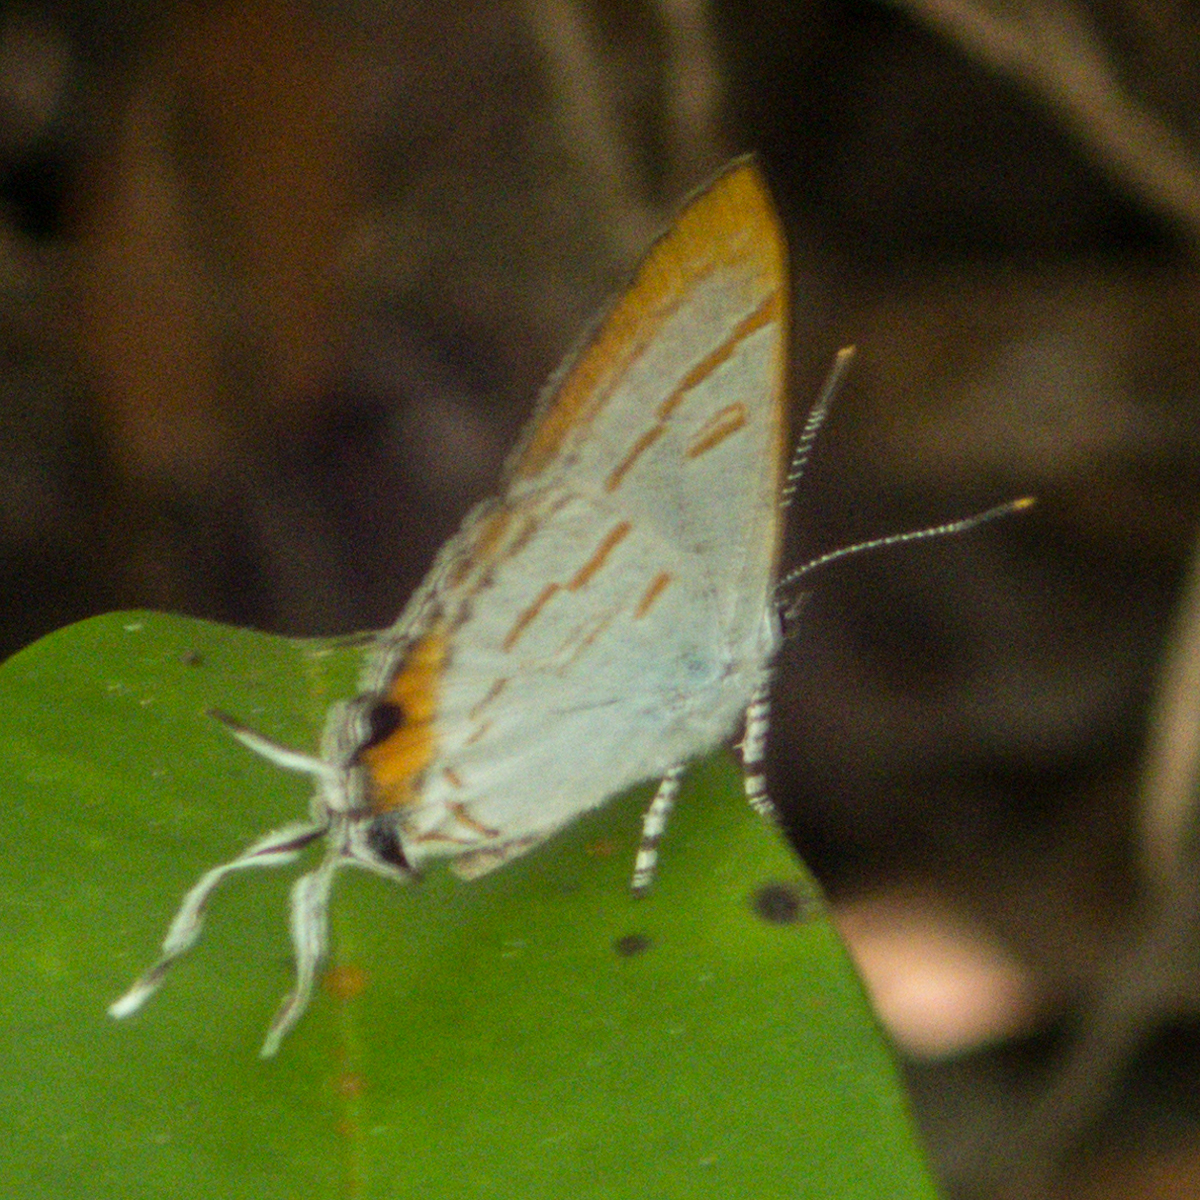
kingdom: Animalia
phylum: Arthropoda
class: Insecta
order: Lepidoptera
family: Lycaenidae
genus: Hypolycaena
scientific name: Hypolycaena thecloides
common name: Dark tit
